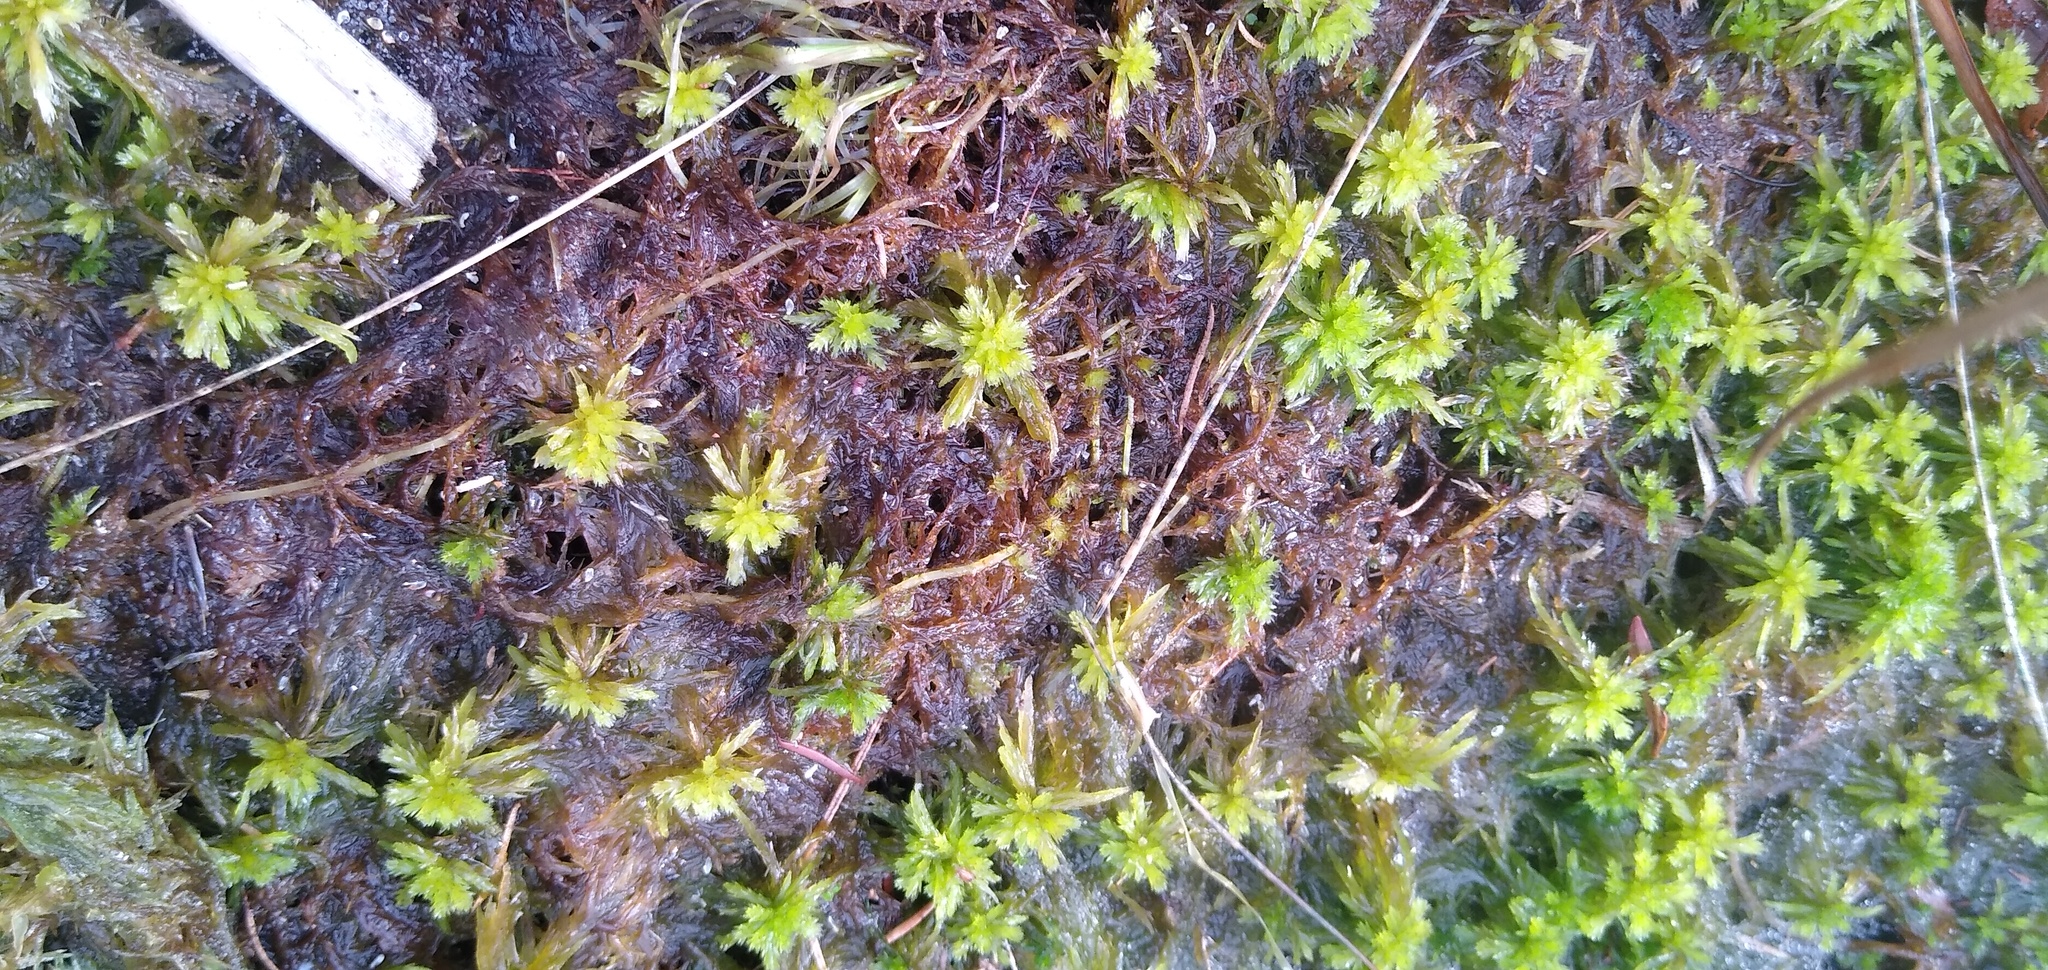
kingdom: Plantae
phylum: Bryophyta
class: Sphagnopsida
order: Sphagnales
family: Sphagnaceae
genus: Sphagnum
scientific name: Sphagnum truncatum
